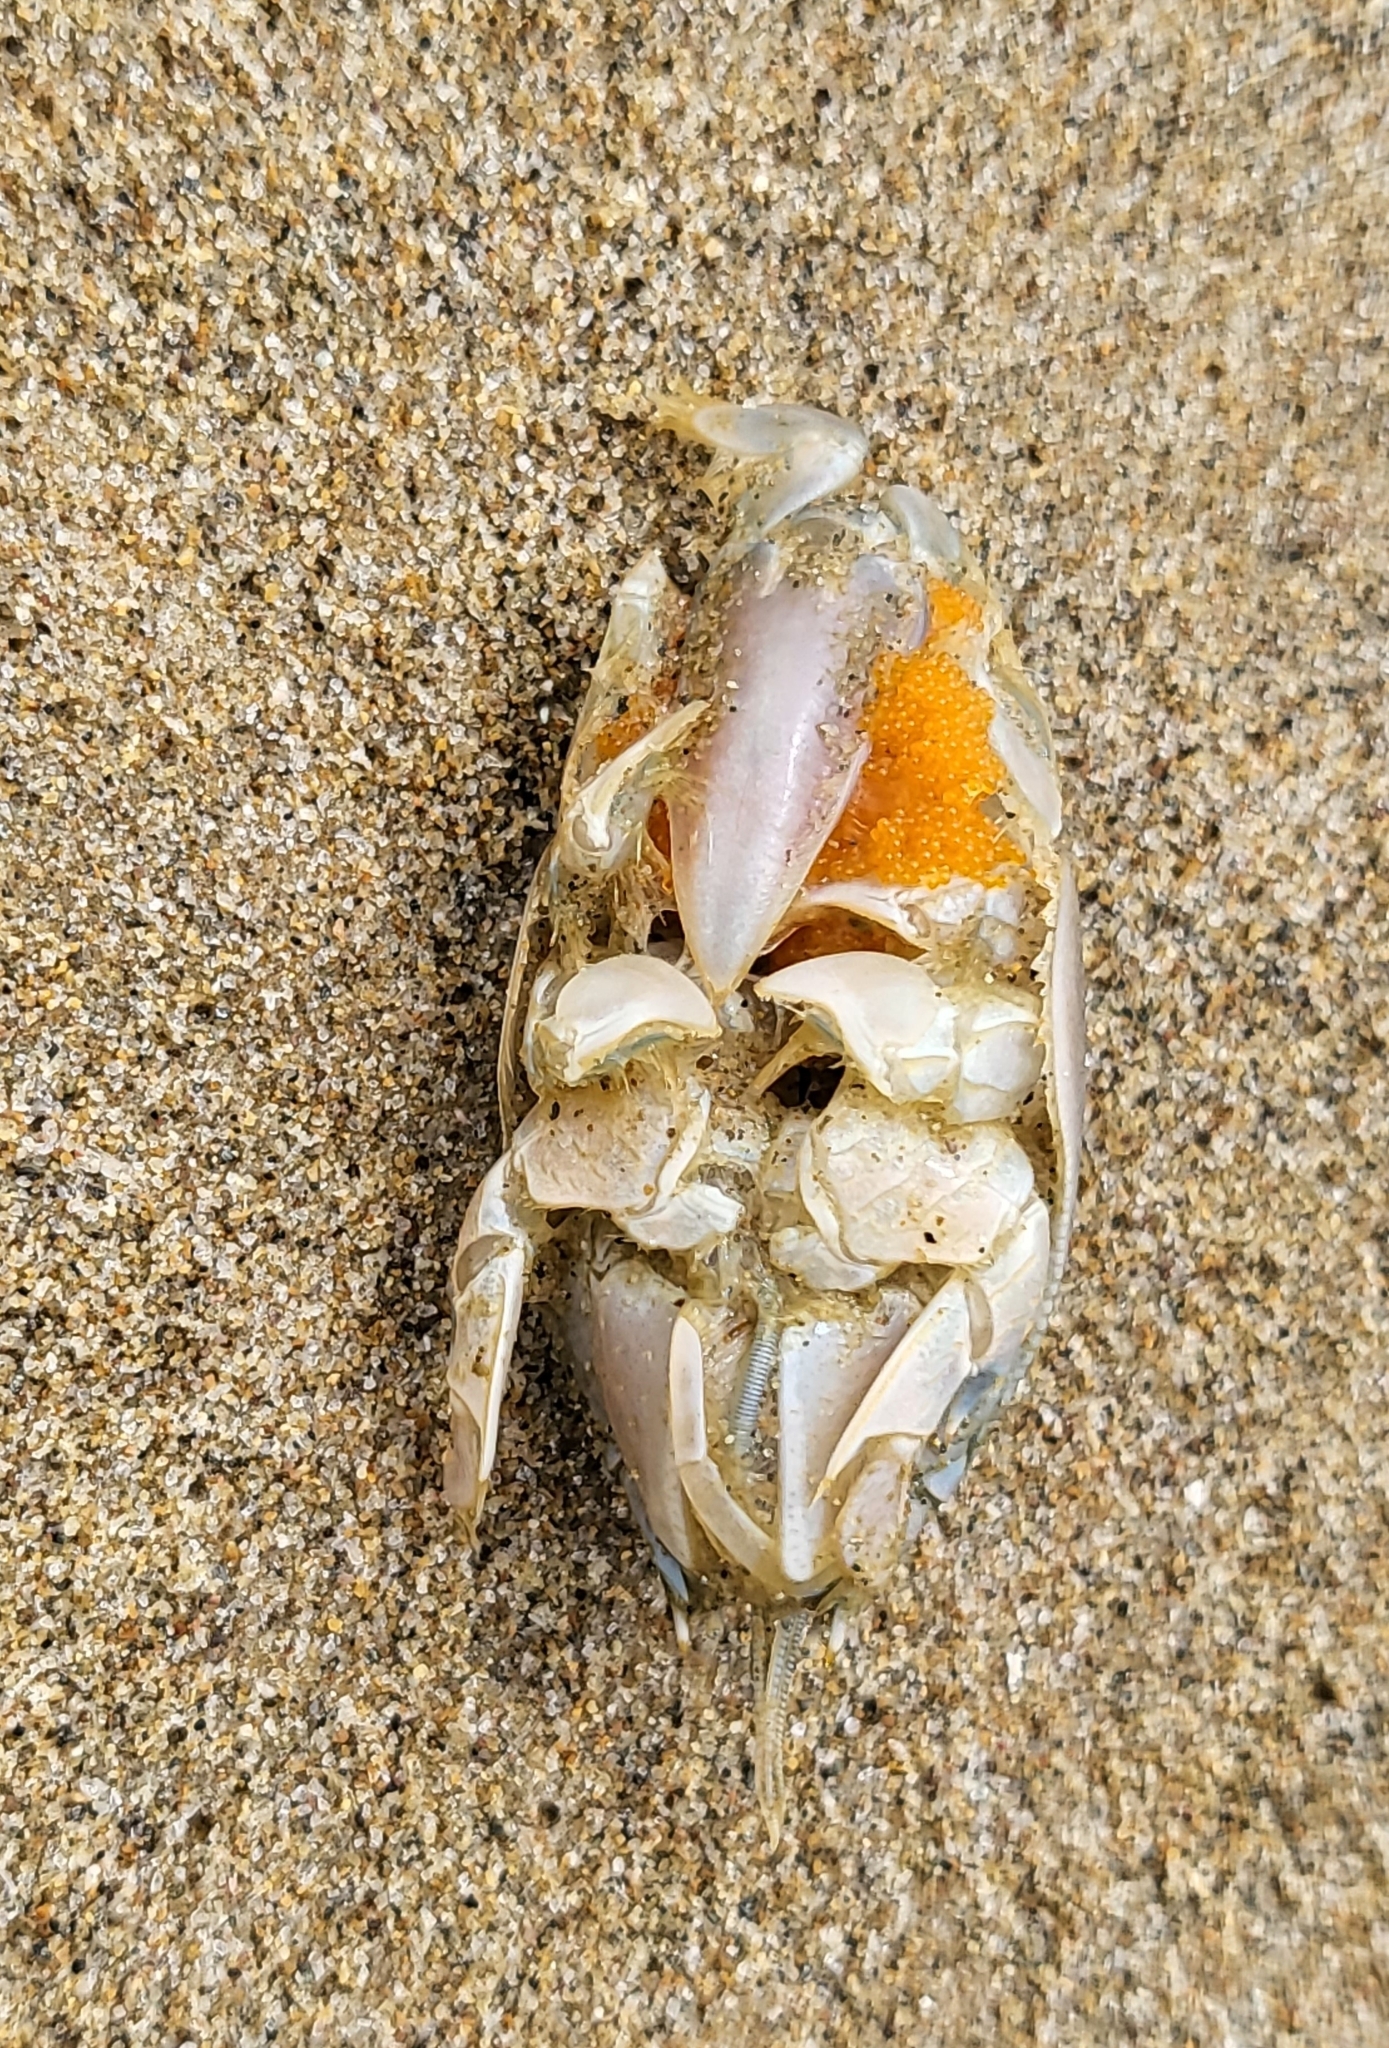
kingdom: Animalia
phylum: Arthropoda
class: Malacostraca
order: Decapoda
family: Hippidae
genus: Emerita
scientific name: Emerita analoga
